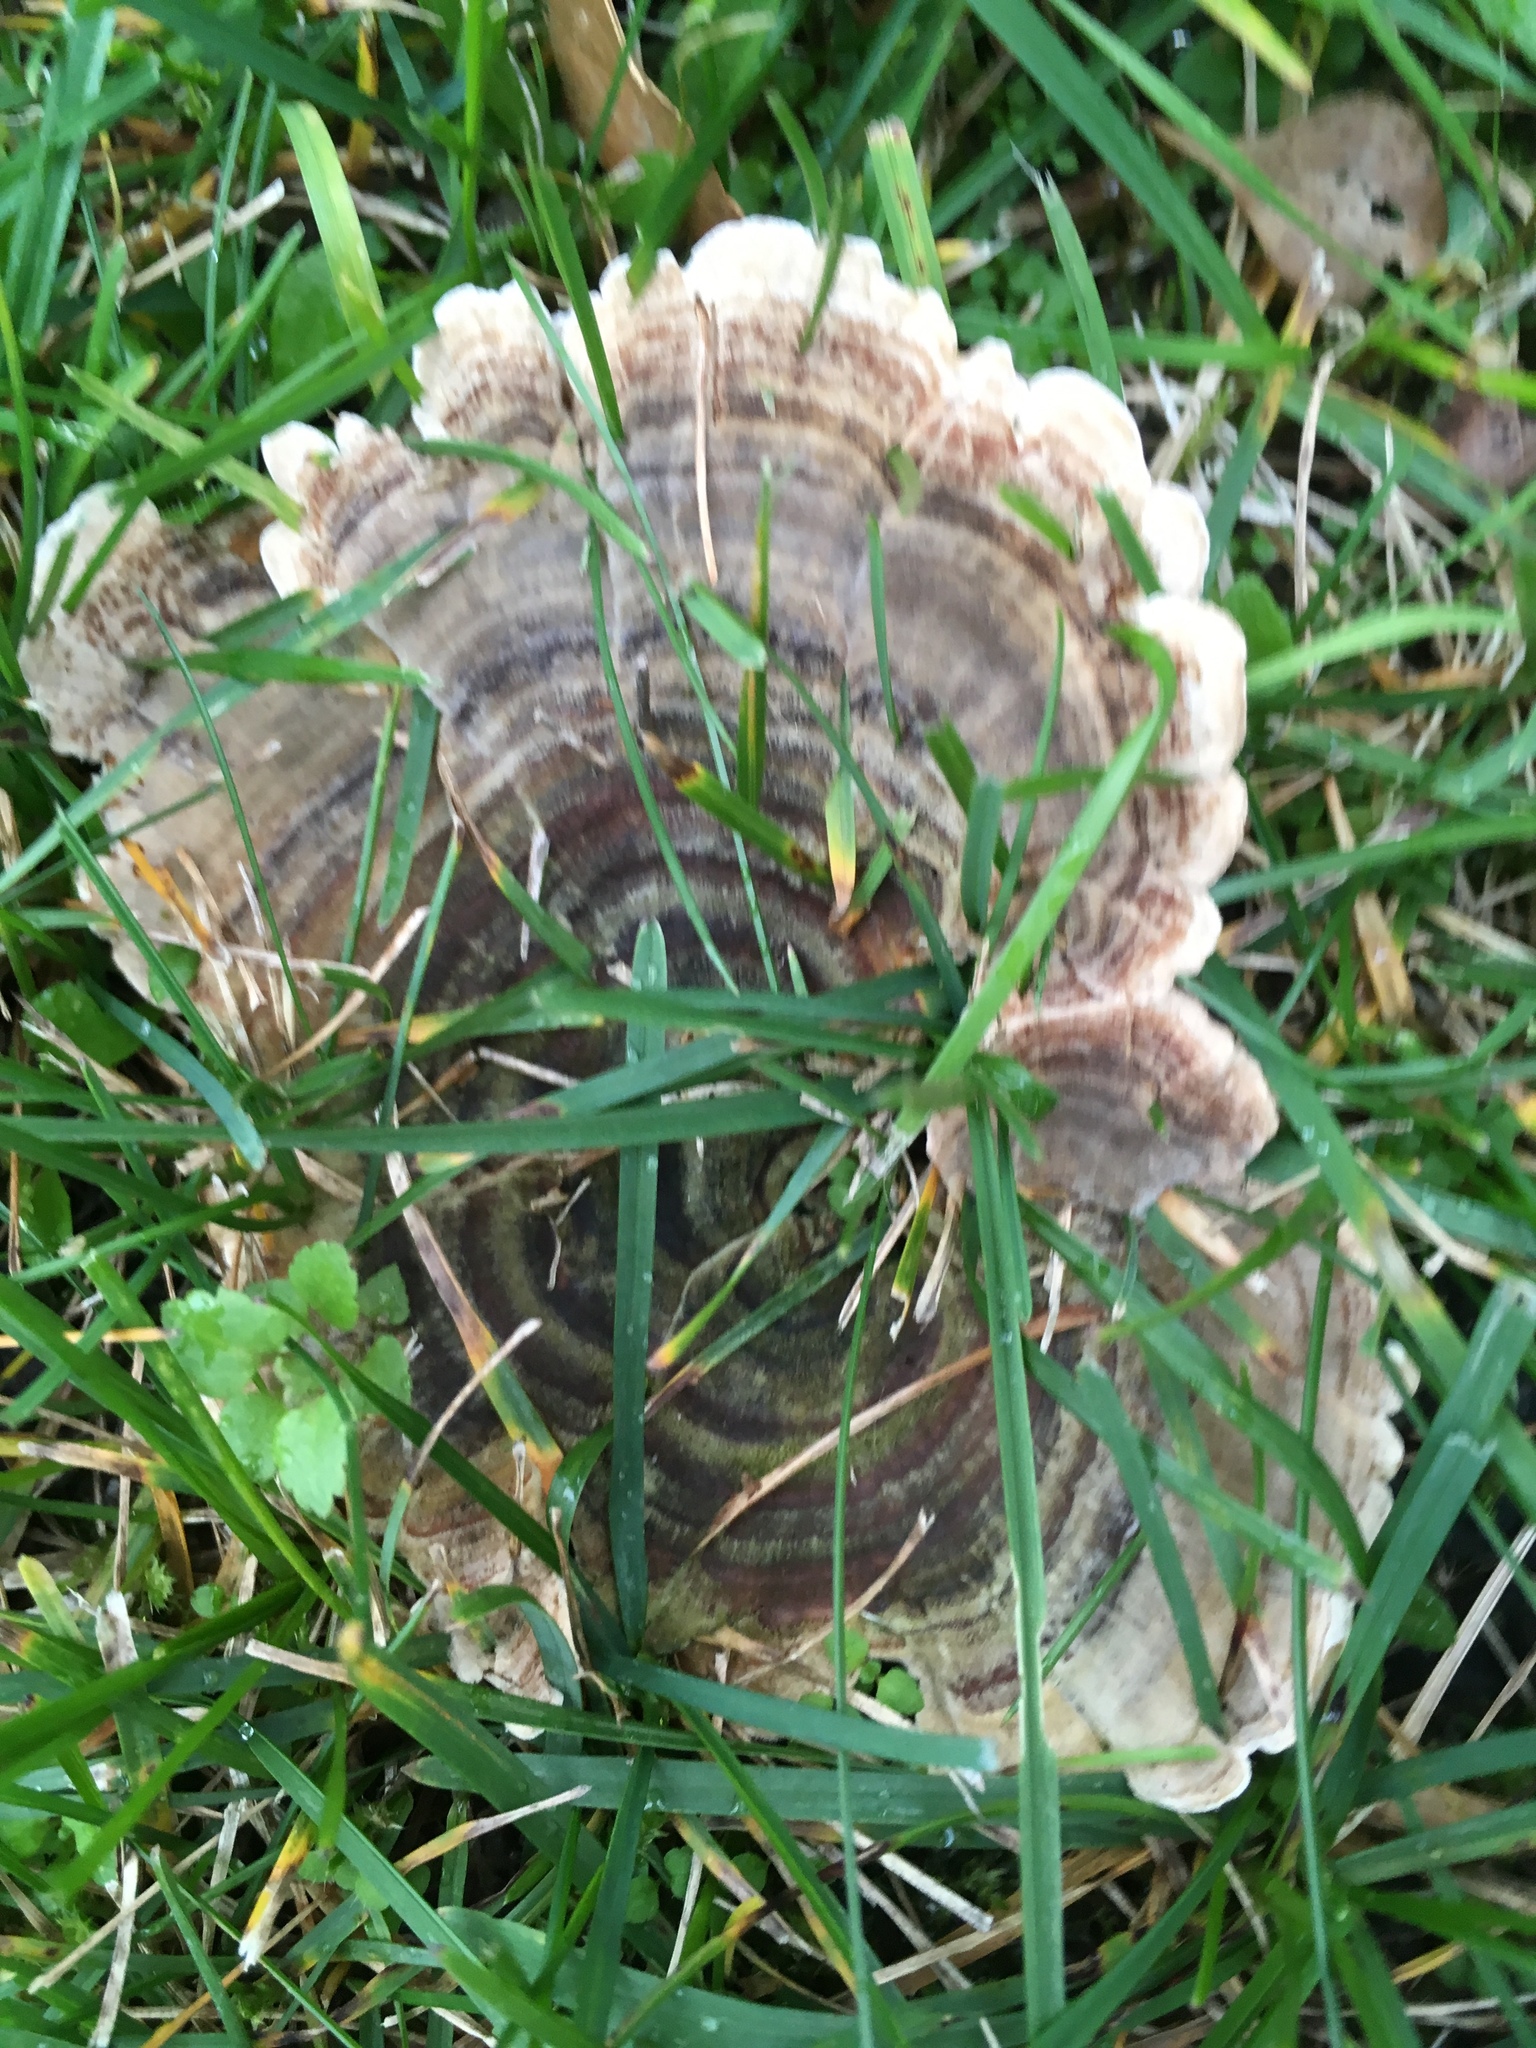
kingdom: Fungi
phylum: Basidiomycota
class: Agaricomycetes
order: Polyporales
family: Polyporaceae
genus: Trametes
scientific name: Trametes versicolor
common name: Turkeytail
